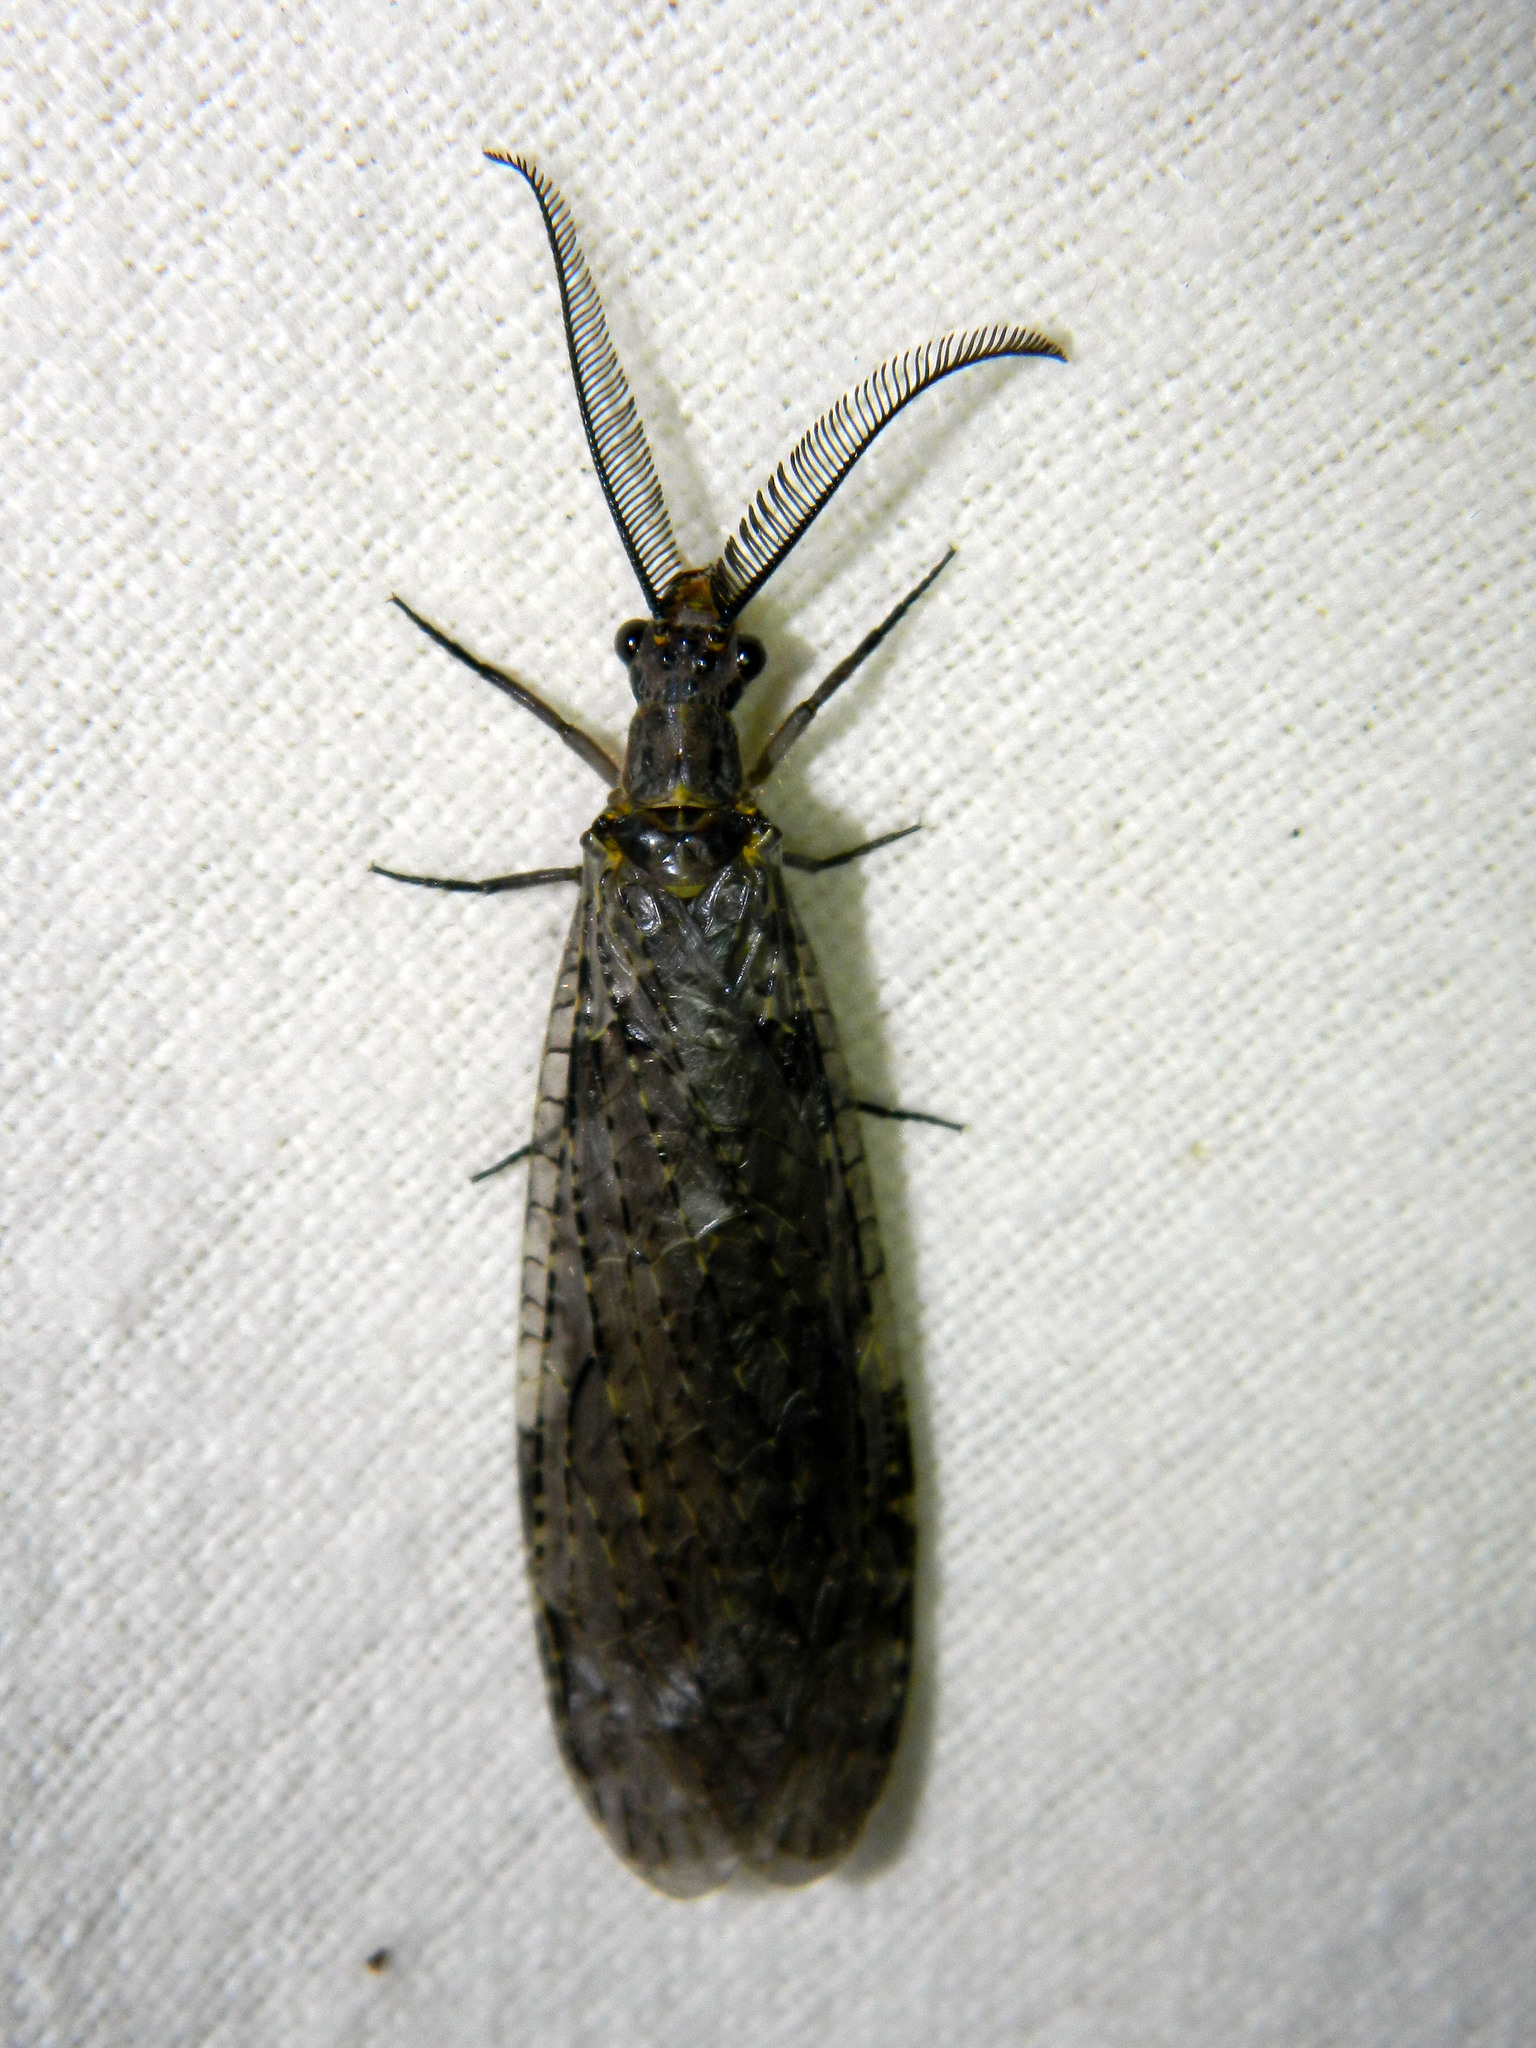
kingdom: Animalia
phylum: Arthropoda
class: Insecta
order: Megaloptera
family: Corydalidae
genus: Chauliodes
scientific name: Chauliodes rastricornis
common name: Spring fishfly
